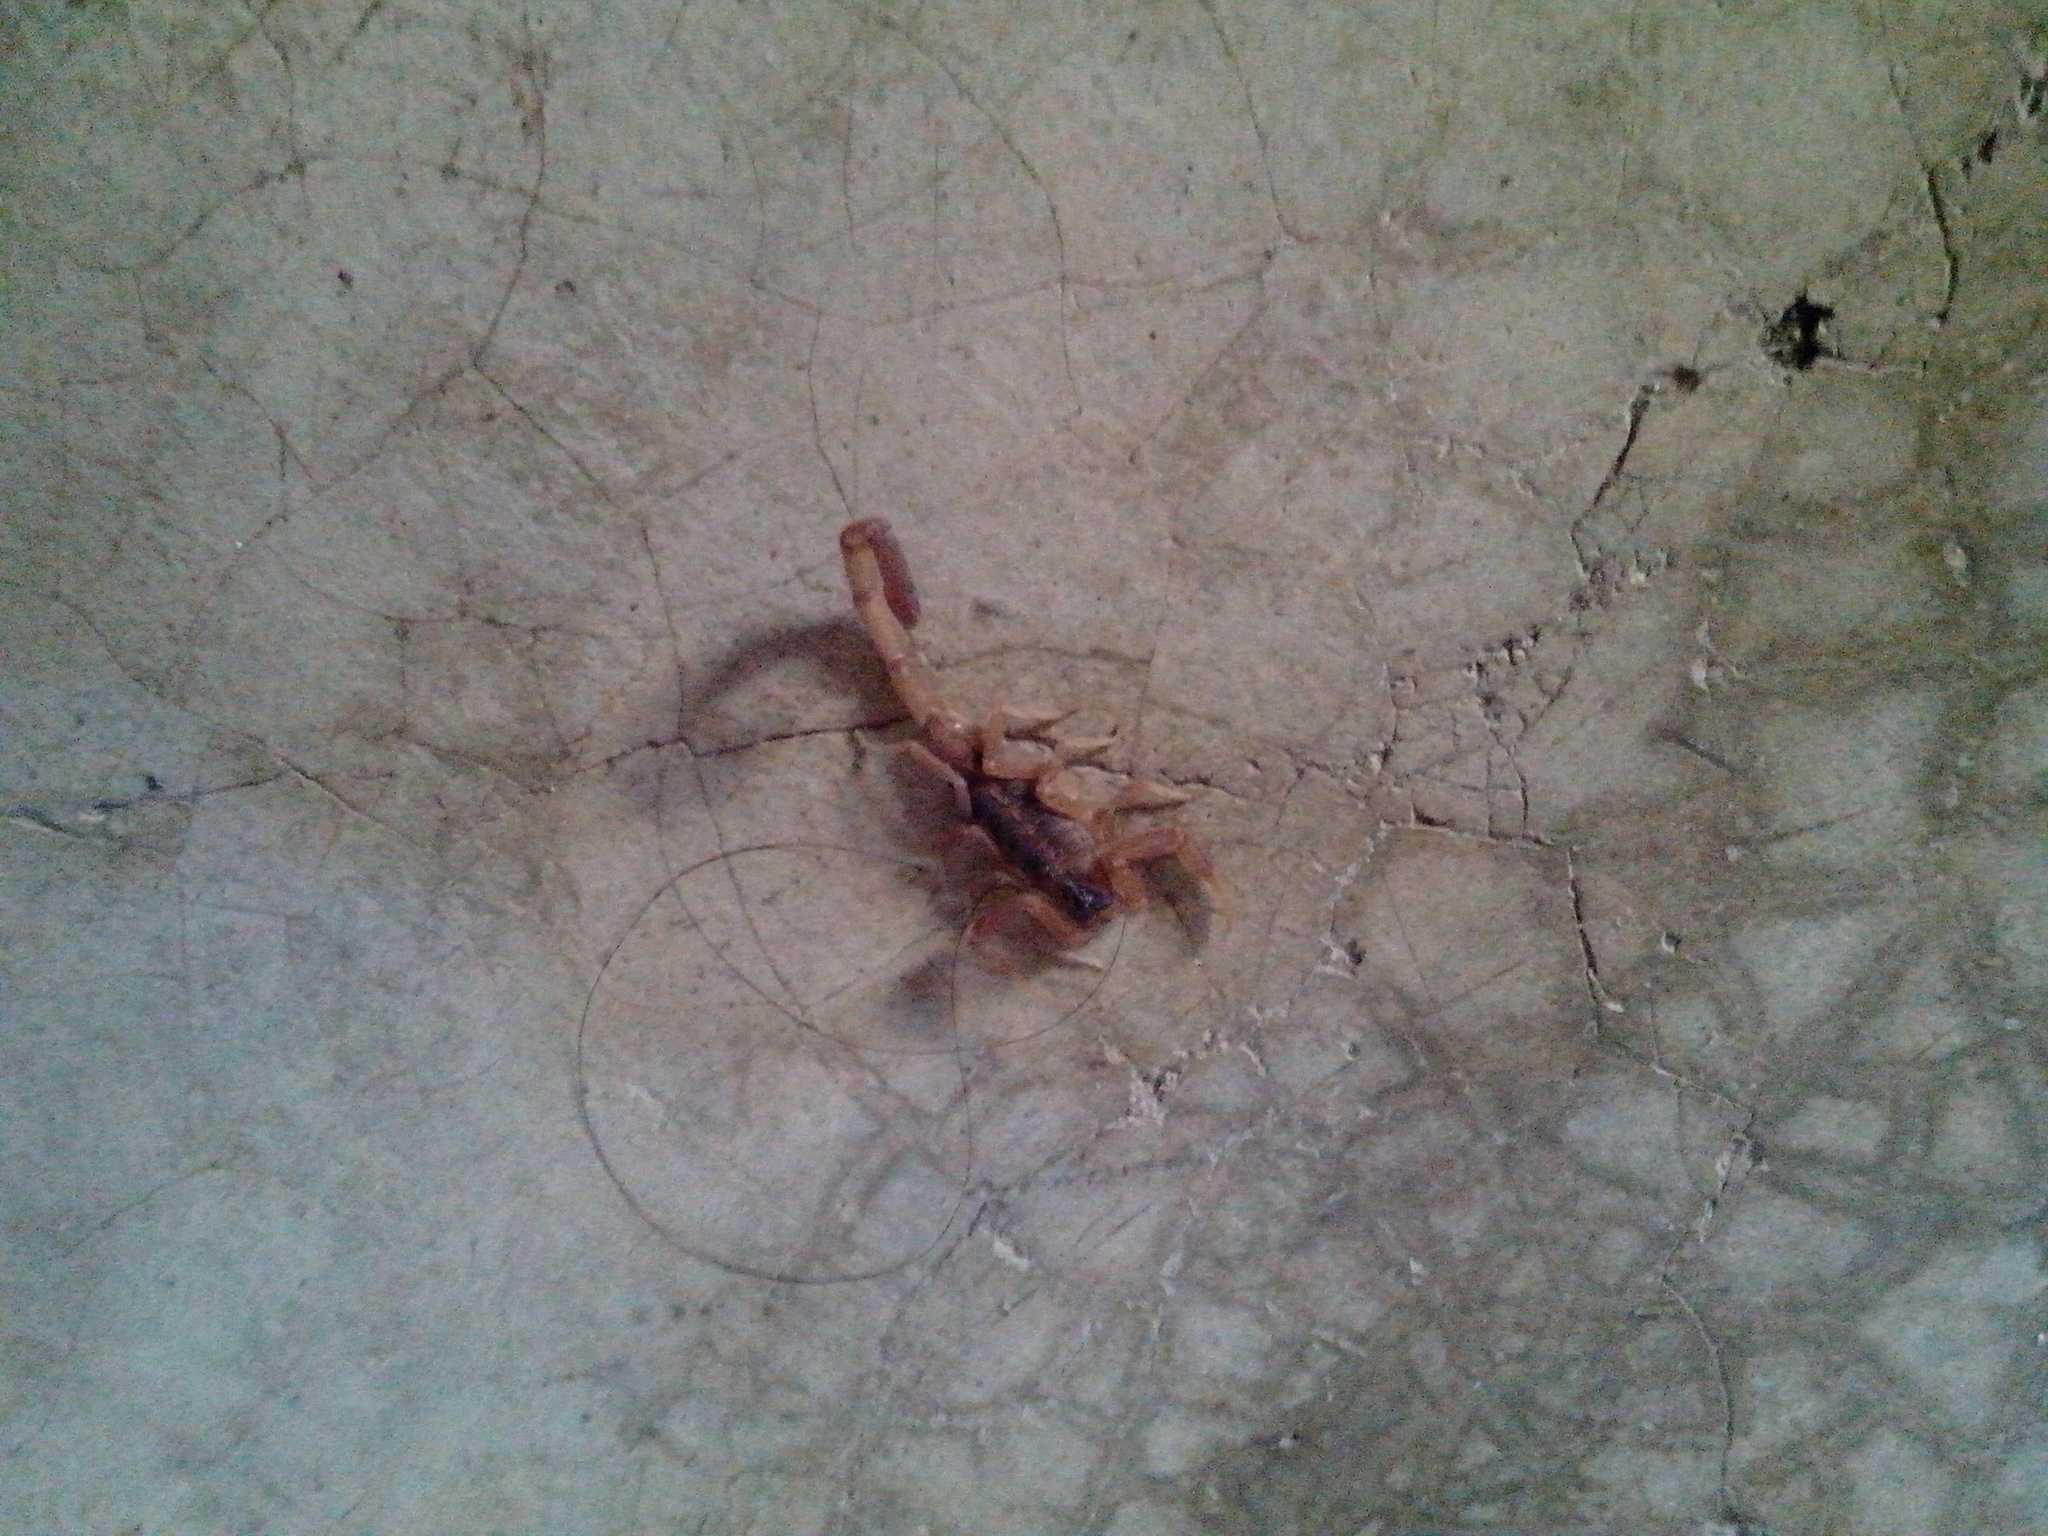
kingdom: Animalia
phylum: Arthropoda
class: Arachnida
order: Scorpiones
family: Buthidae
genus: Centruroides
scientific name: Centruroides vittatus
